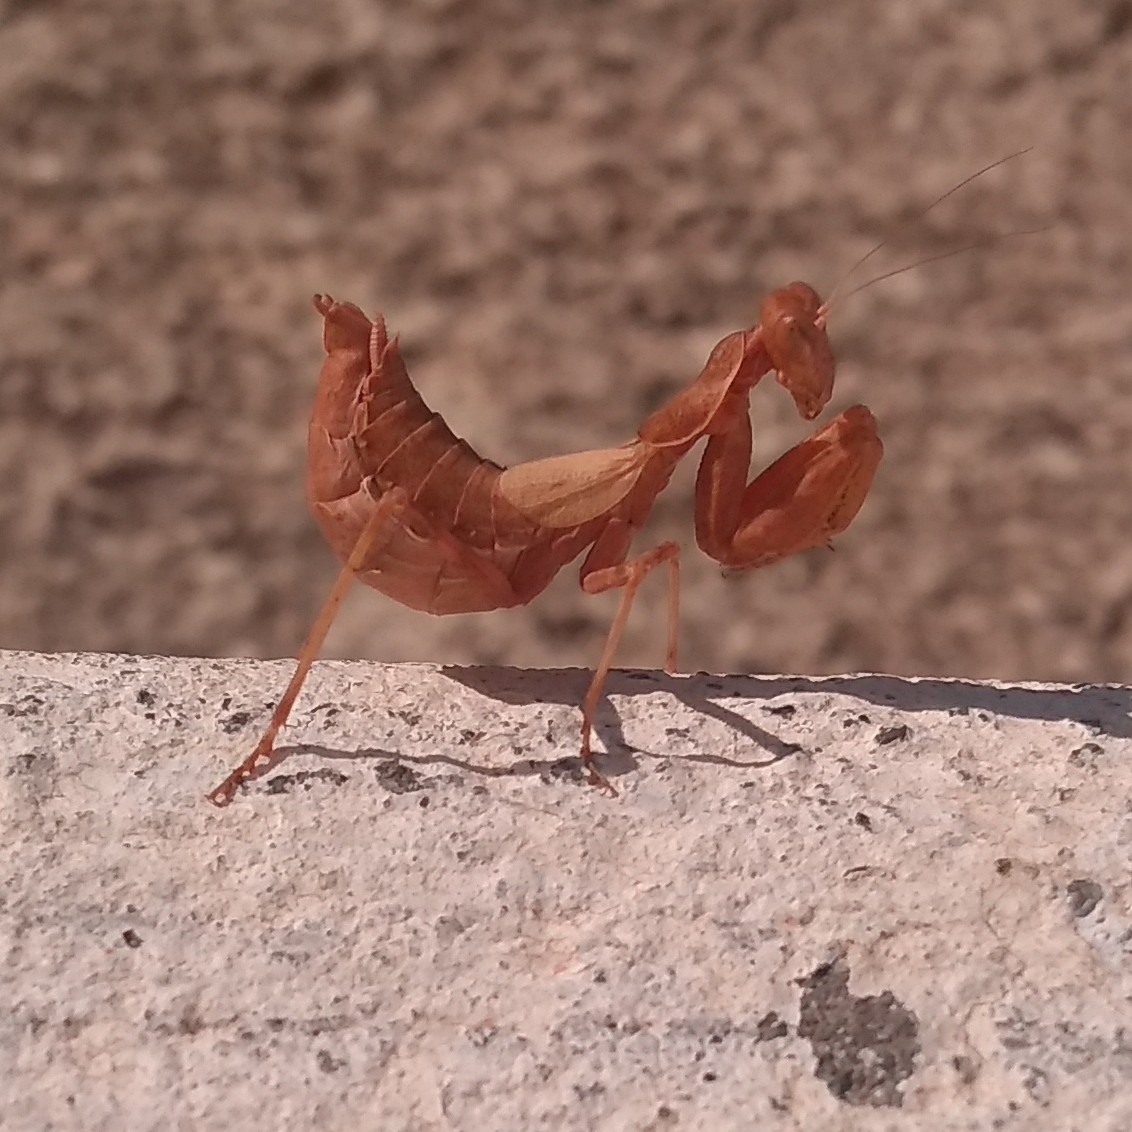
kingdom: Animalia
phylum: Arthropoda
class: Insecta
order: Mantodea
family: Amelidae
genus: Ameles
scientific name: Ameles spallanzania
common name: European dwarf mantis
